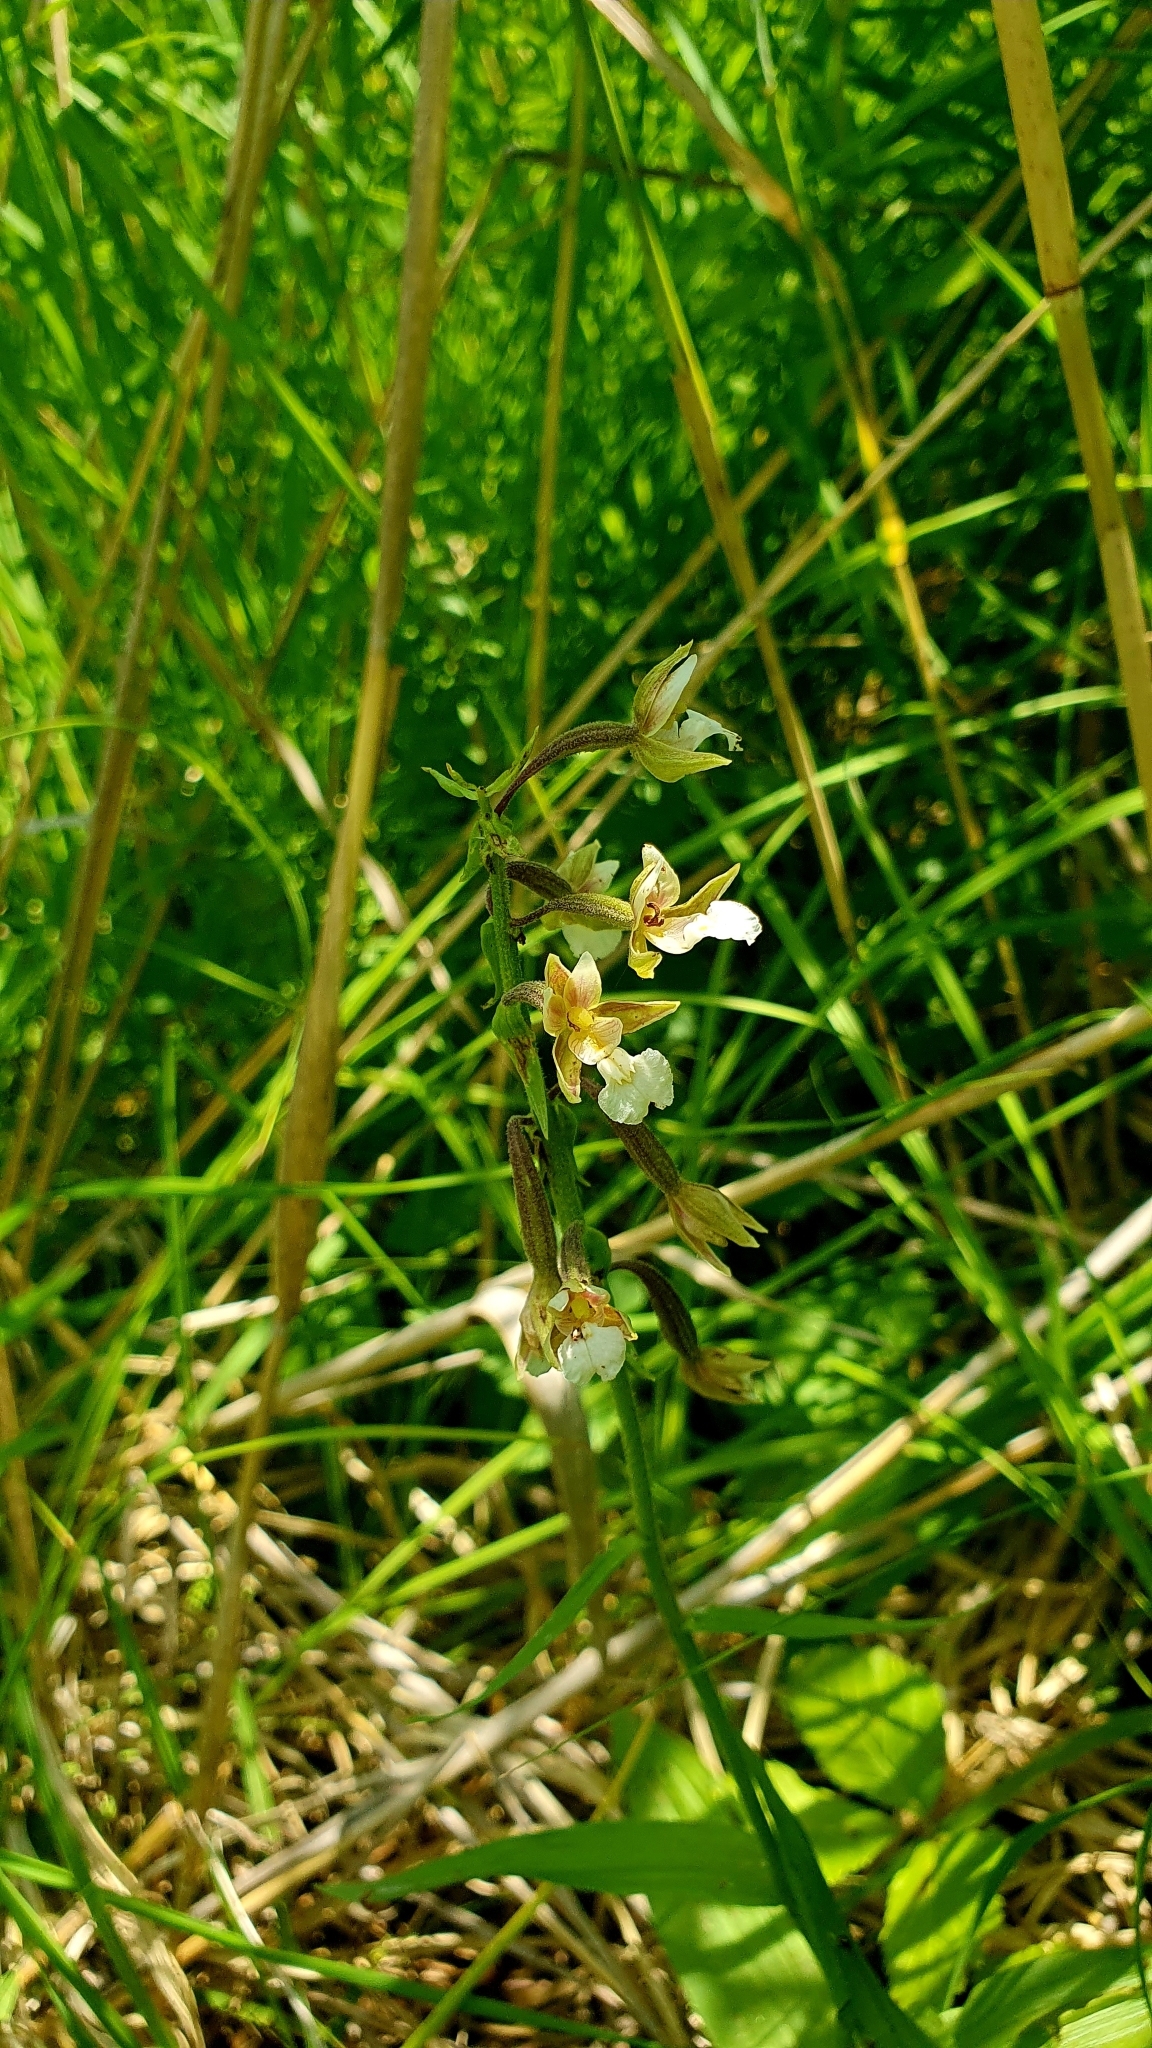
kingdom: Plantae
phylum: Tracheophyta
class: Liliopsida
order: Asparagales
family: Orchidaceae
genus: Epipactis
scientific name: Epipactis palustris
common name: Marsh helleborine
